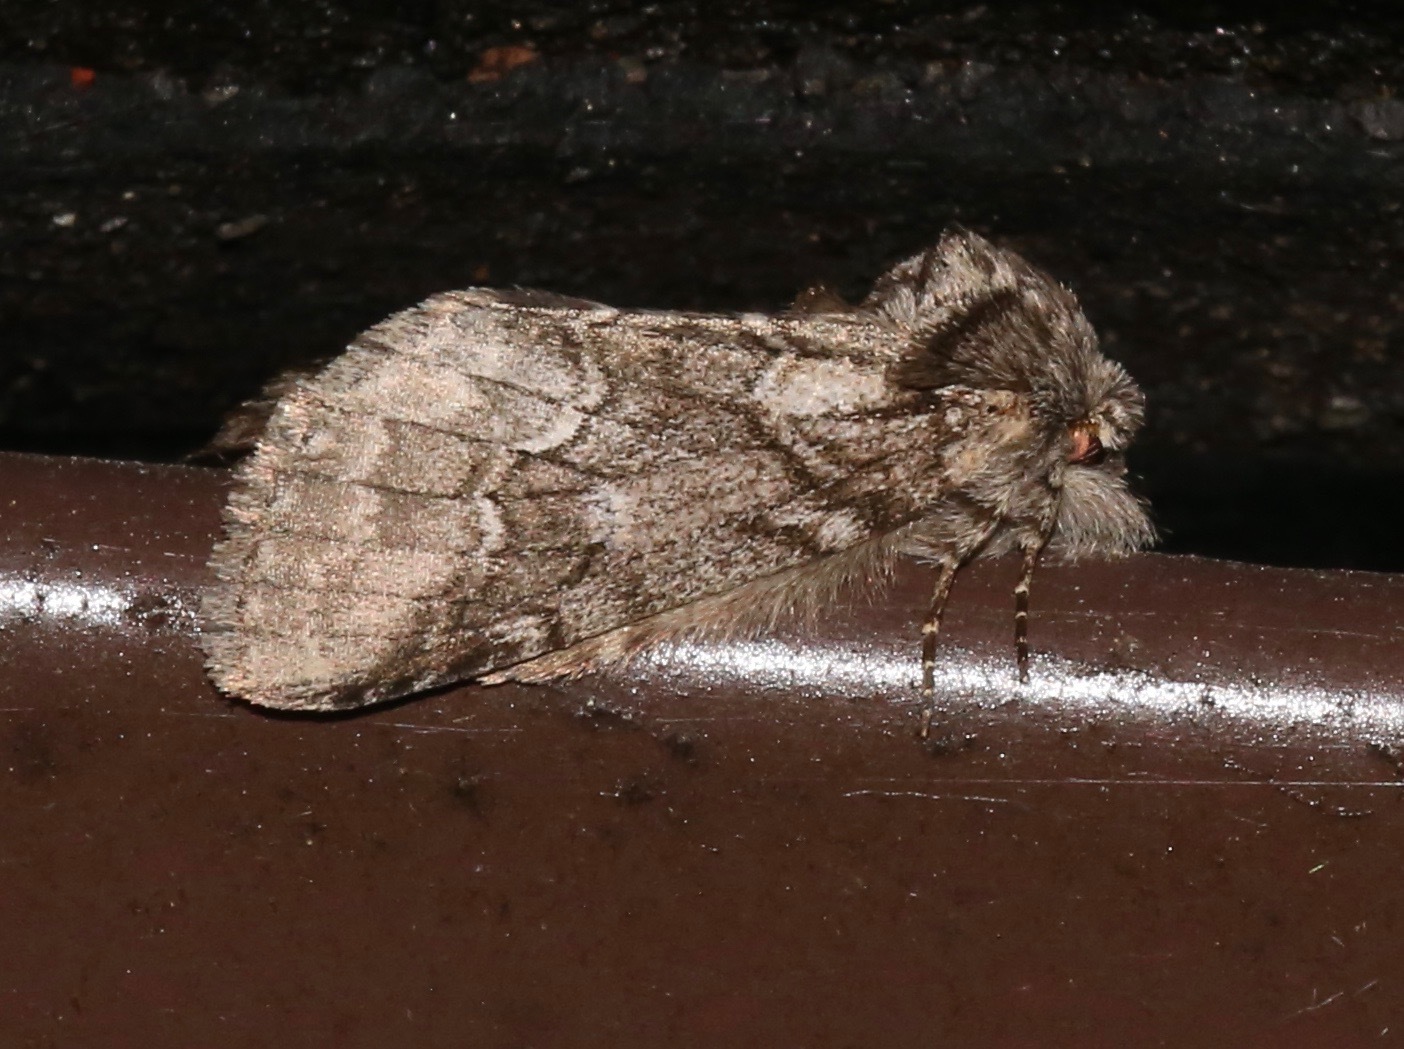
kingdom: Animalia
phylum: Arthropoda
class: Insecta
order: Lepidoptera
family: Notodontidae
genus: Lochmaeus
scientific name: Lochmaeus bilineata
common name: Double-lined prominent
